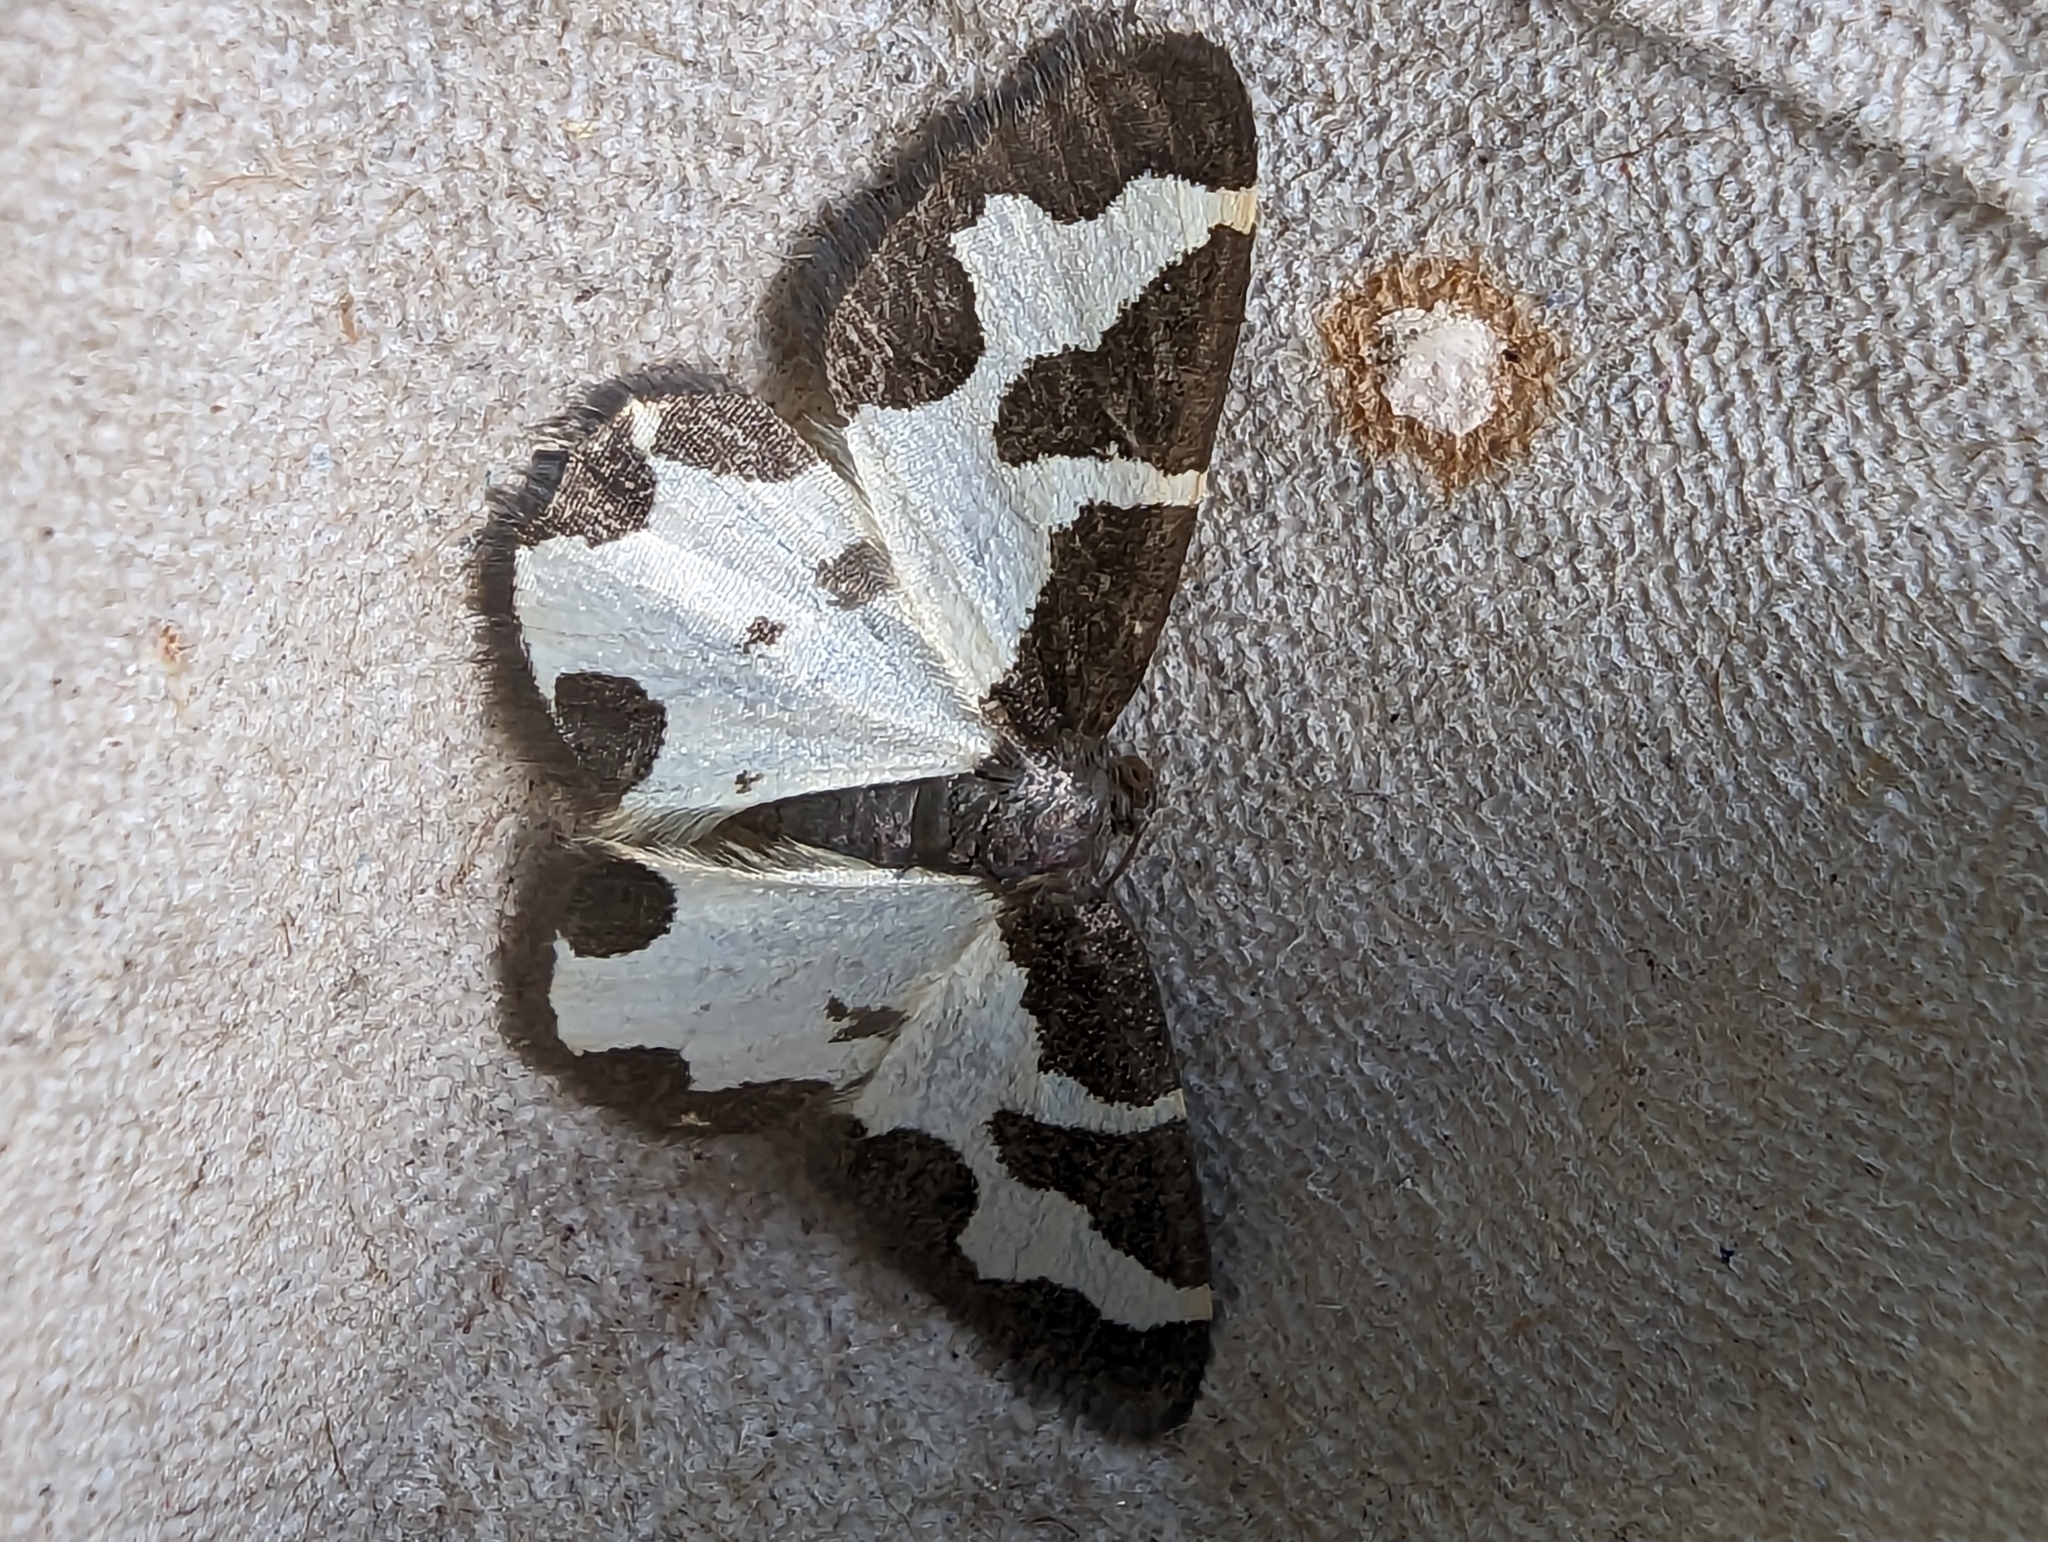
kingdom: Animalia
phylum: Arthropoda
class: Insecta
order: Lepidoptera
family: Geometridae
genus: Lomaspilis
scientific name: Lomaspilis marginata
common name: Clouded border
